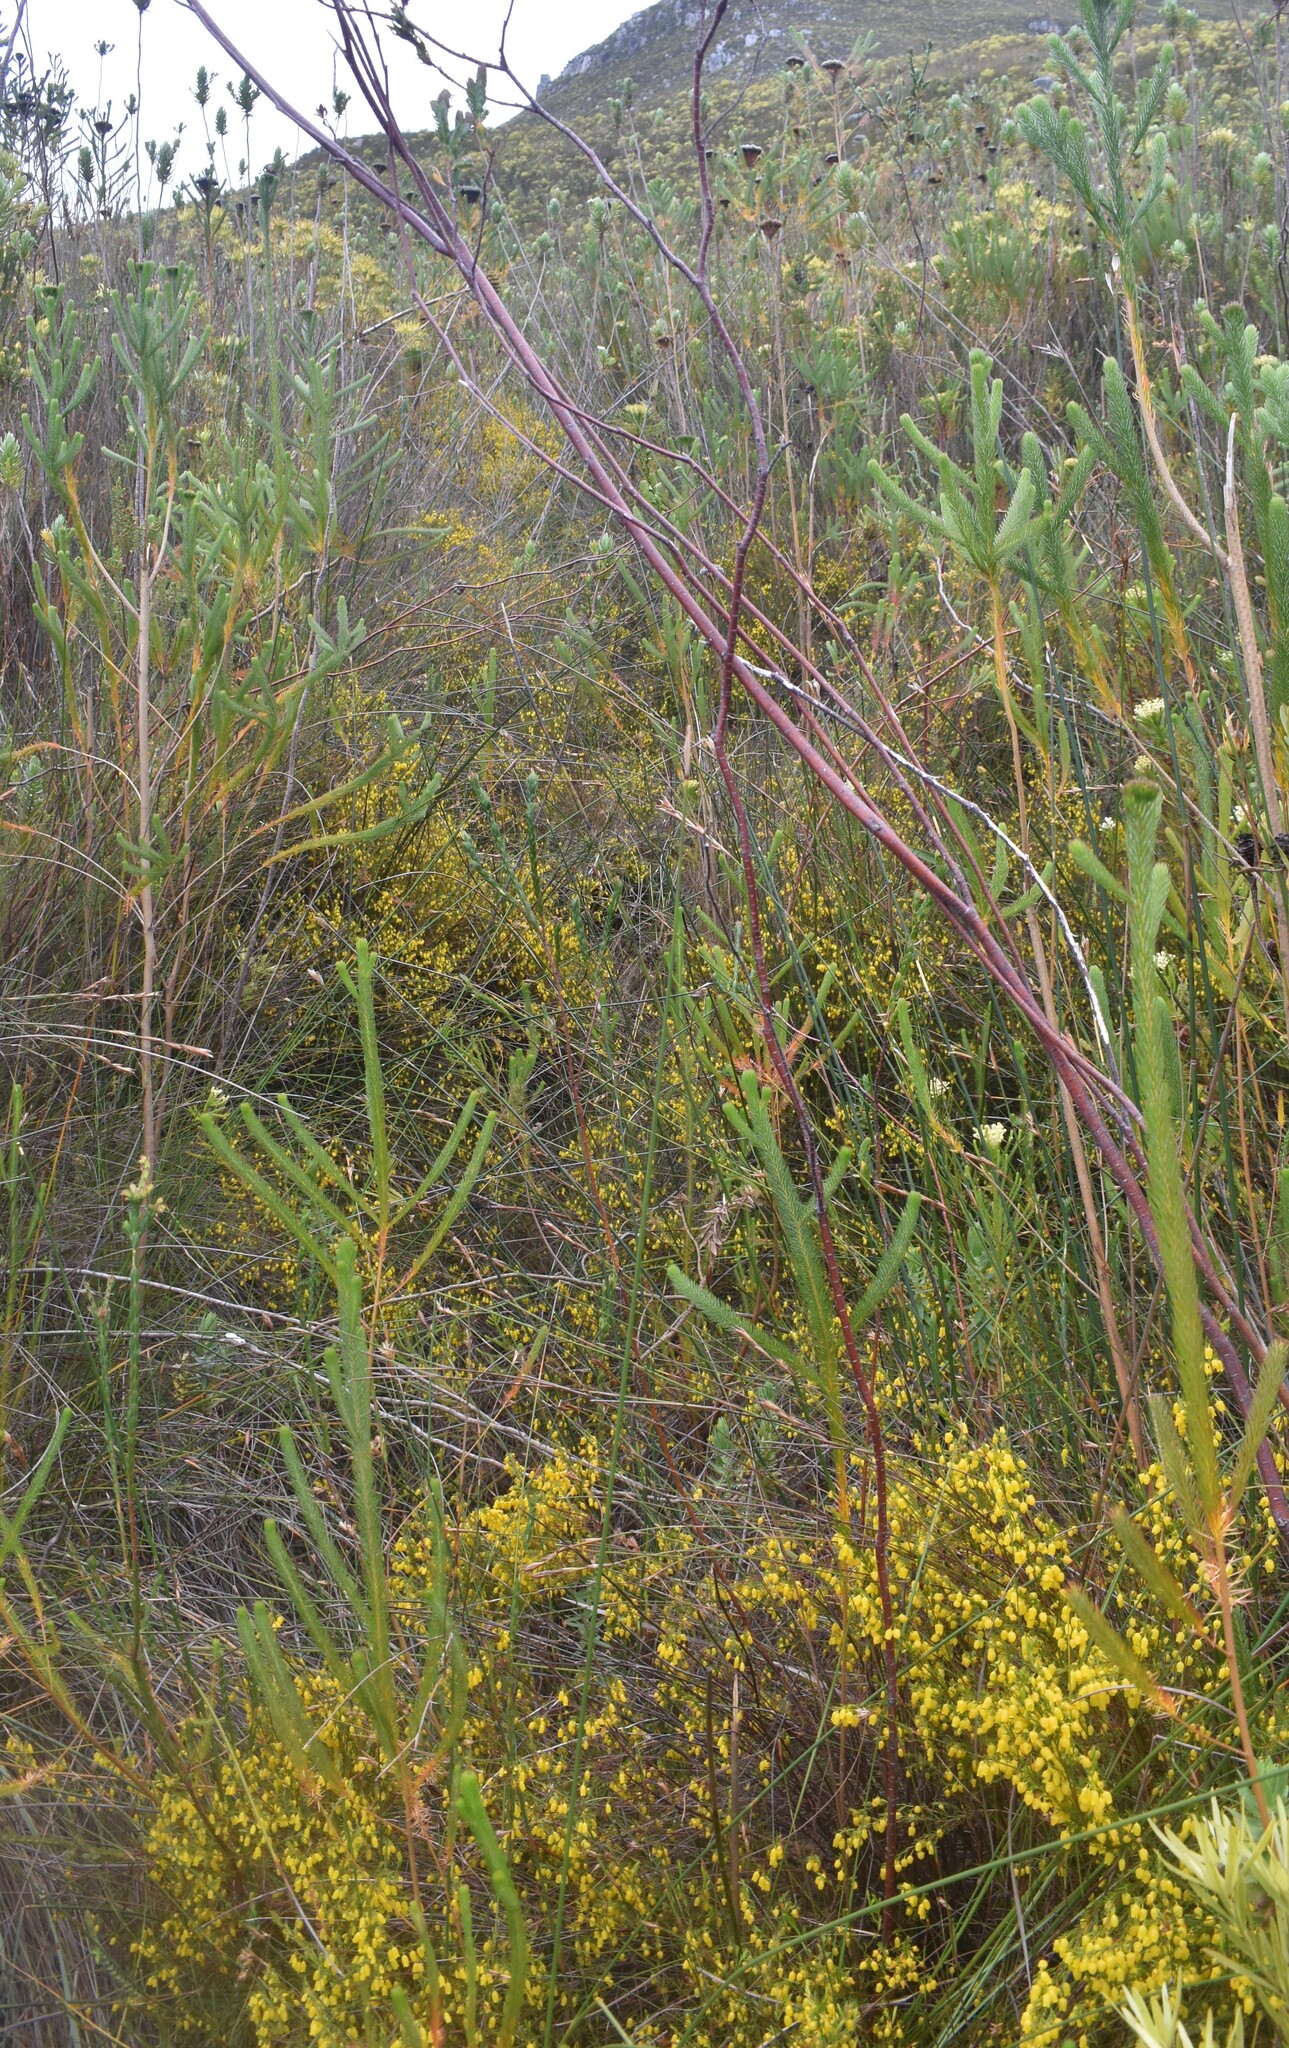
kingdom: Plantae
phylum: Tracheophyta
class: Magnoliopsida
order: Ericales
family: Ericaceae
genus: Erica
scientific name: Erica campanularis
